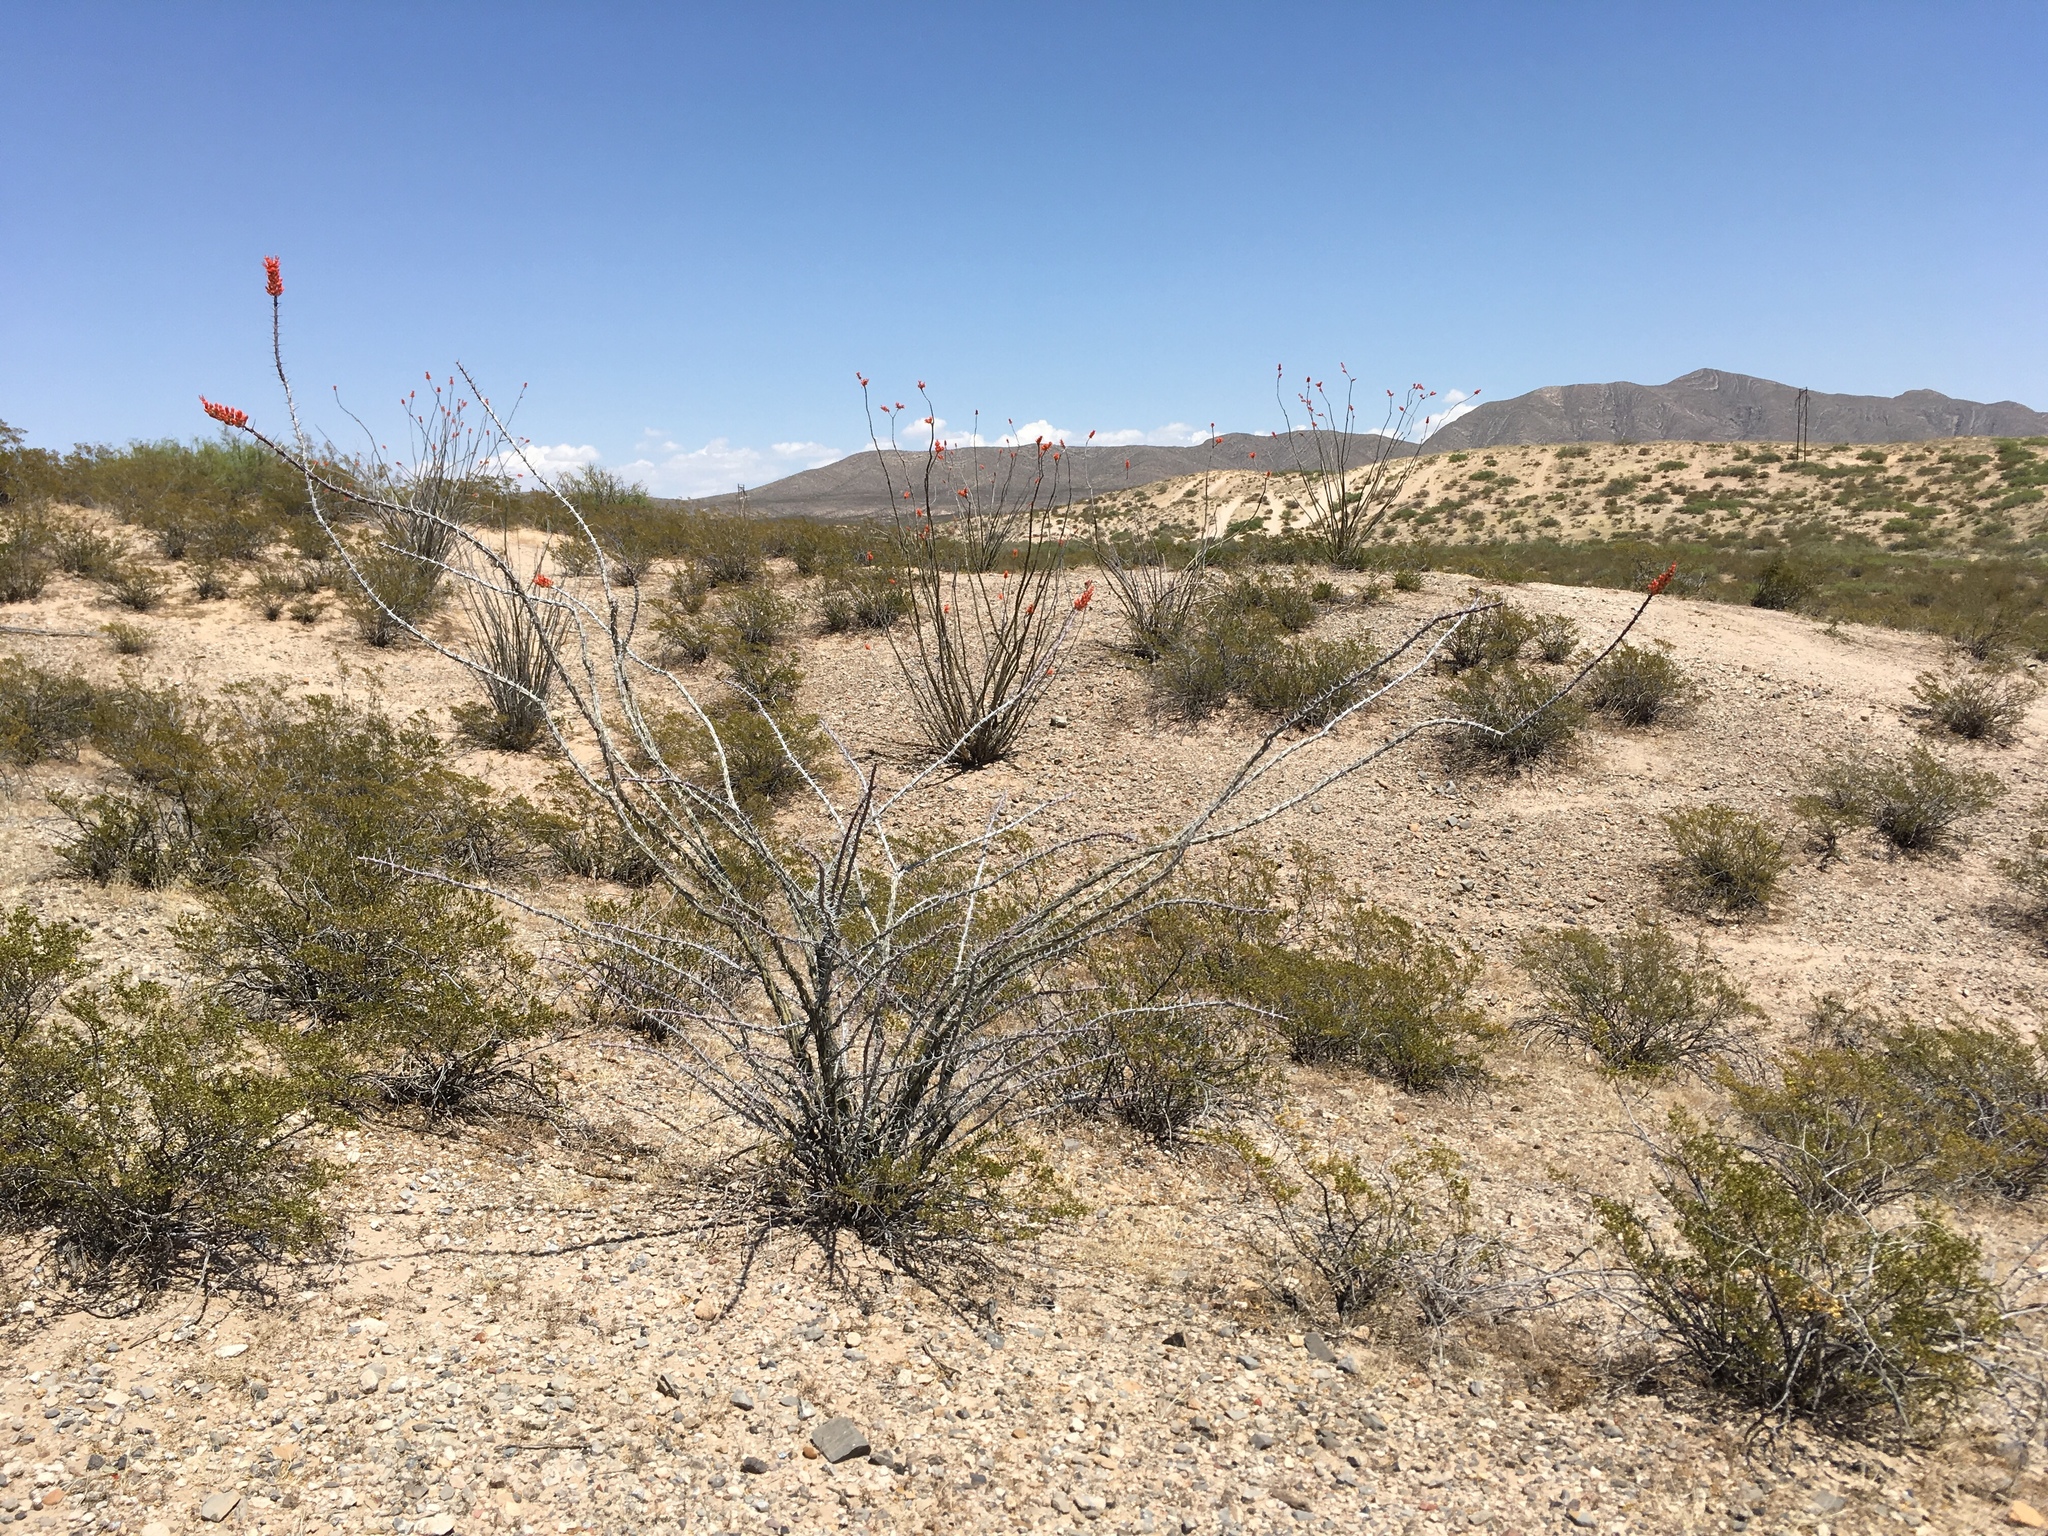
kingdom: Plantae
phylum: Tracheophyta
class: Magnoliopsida
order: Ericales
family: Fouquieriaceae
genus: Fouquieria
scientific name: Fouquieria splendens
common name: Vine-cactus
